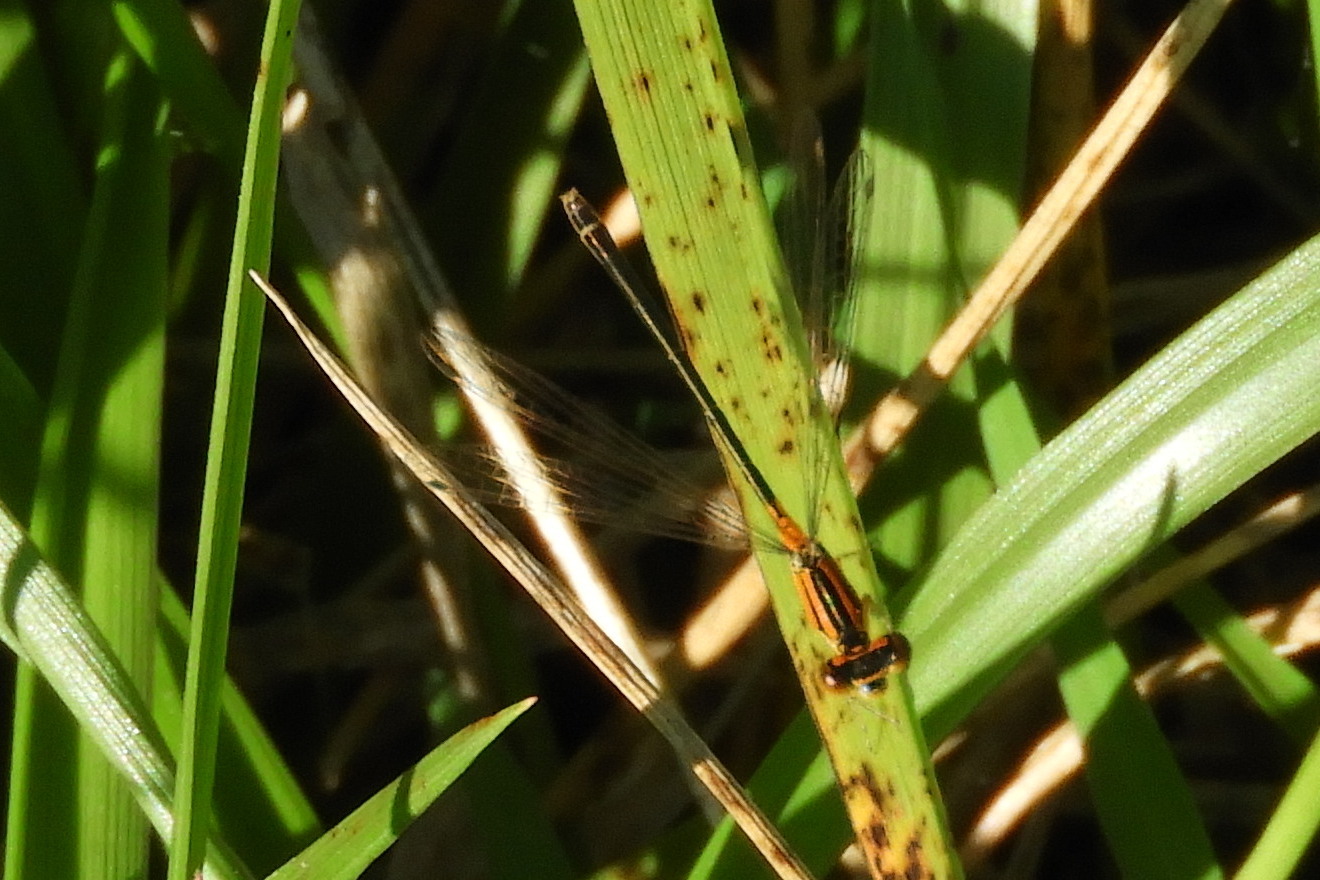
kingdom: Animalia
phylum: Arthropoda
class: Insecta
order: Odonata
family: Coenagrionidae
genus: Ischnura
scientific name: Ischnura verticalis
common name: Eastern forktail
